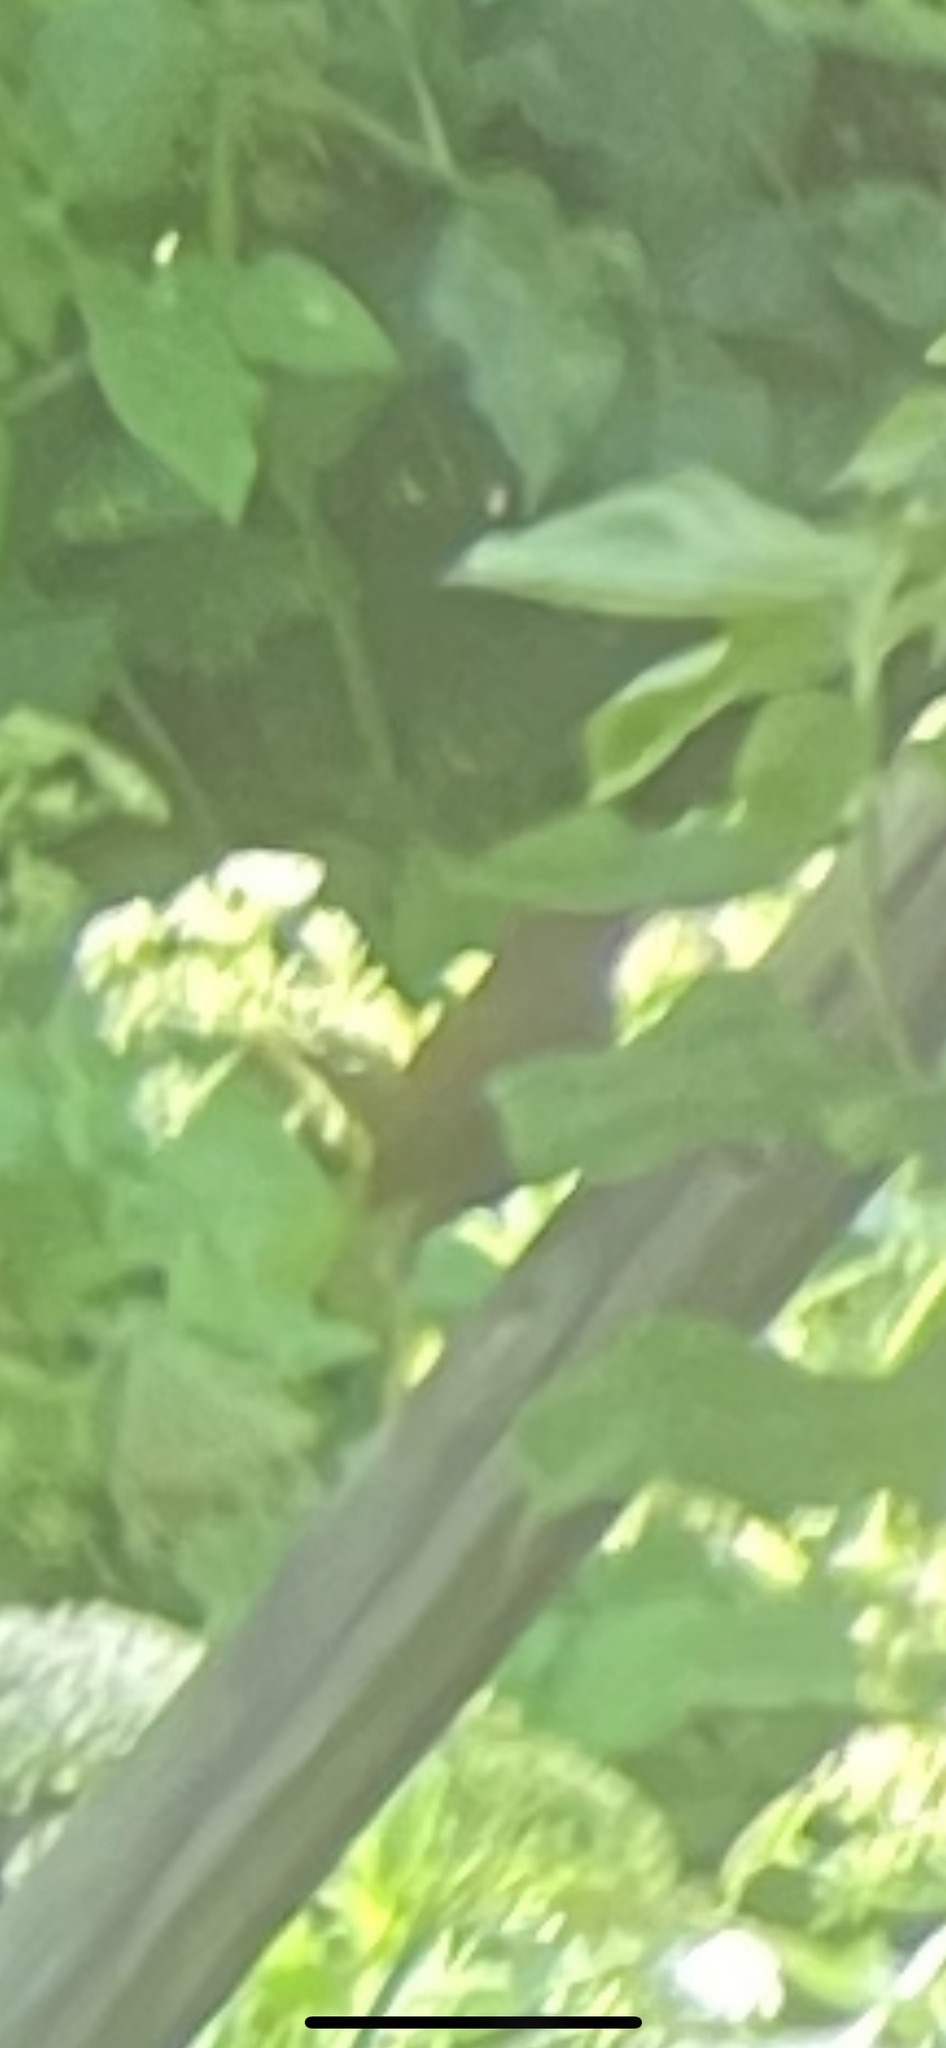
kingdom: Animalia
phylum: Chordata
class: Aves
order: Passeriformes
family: Troglodytidae
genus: Troglodytes
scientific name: Troglodytes troglodytes
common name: Eurasian wren
